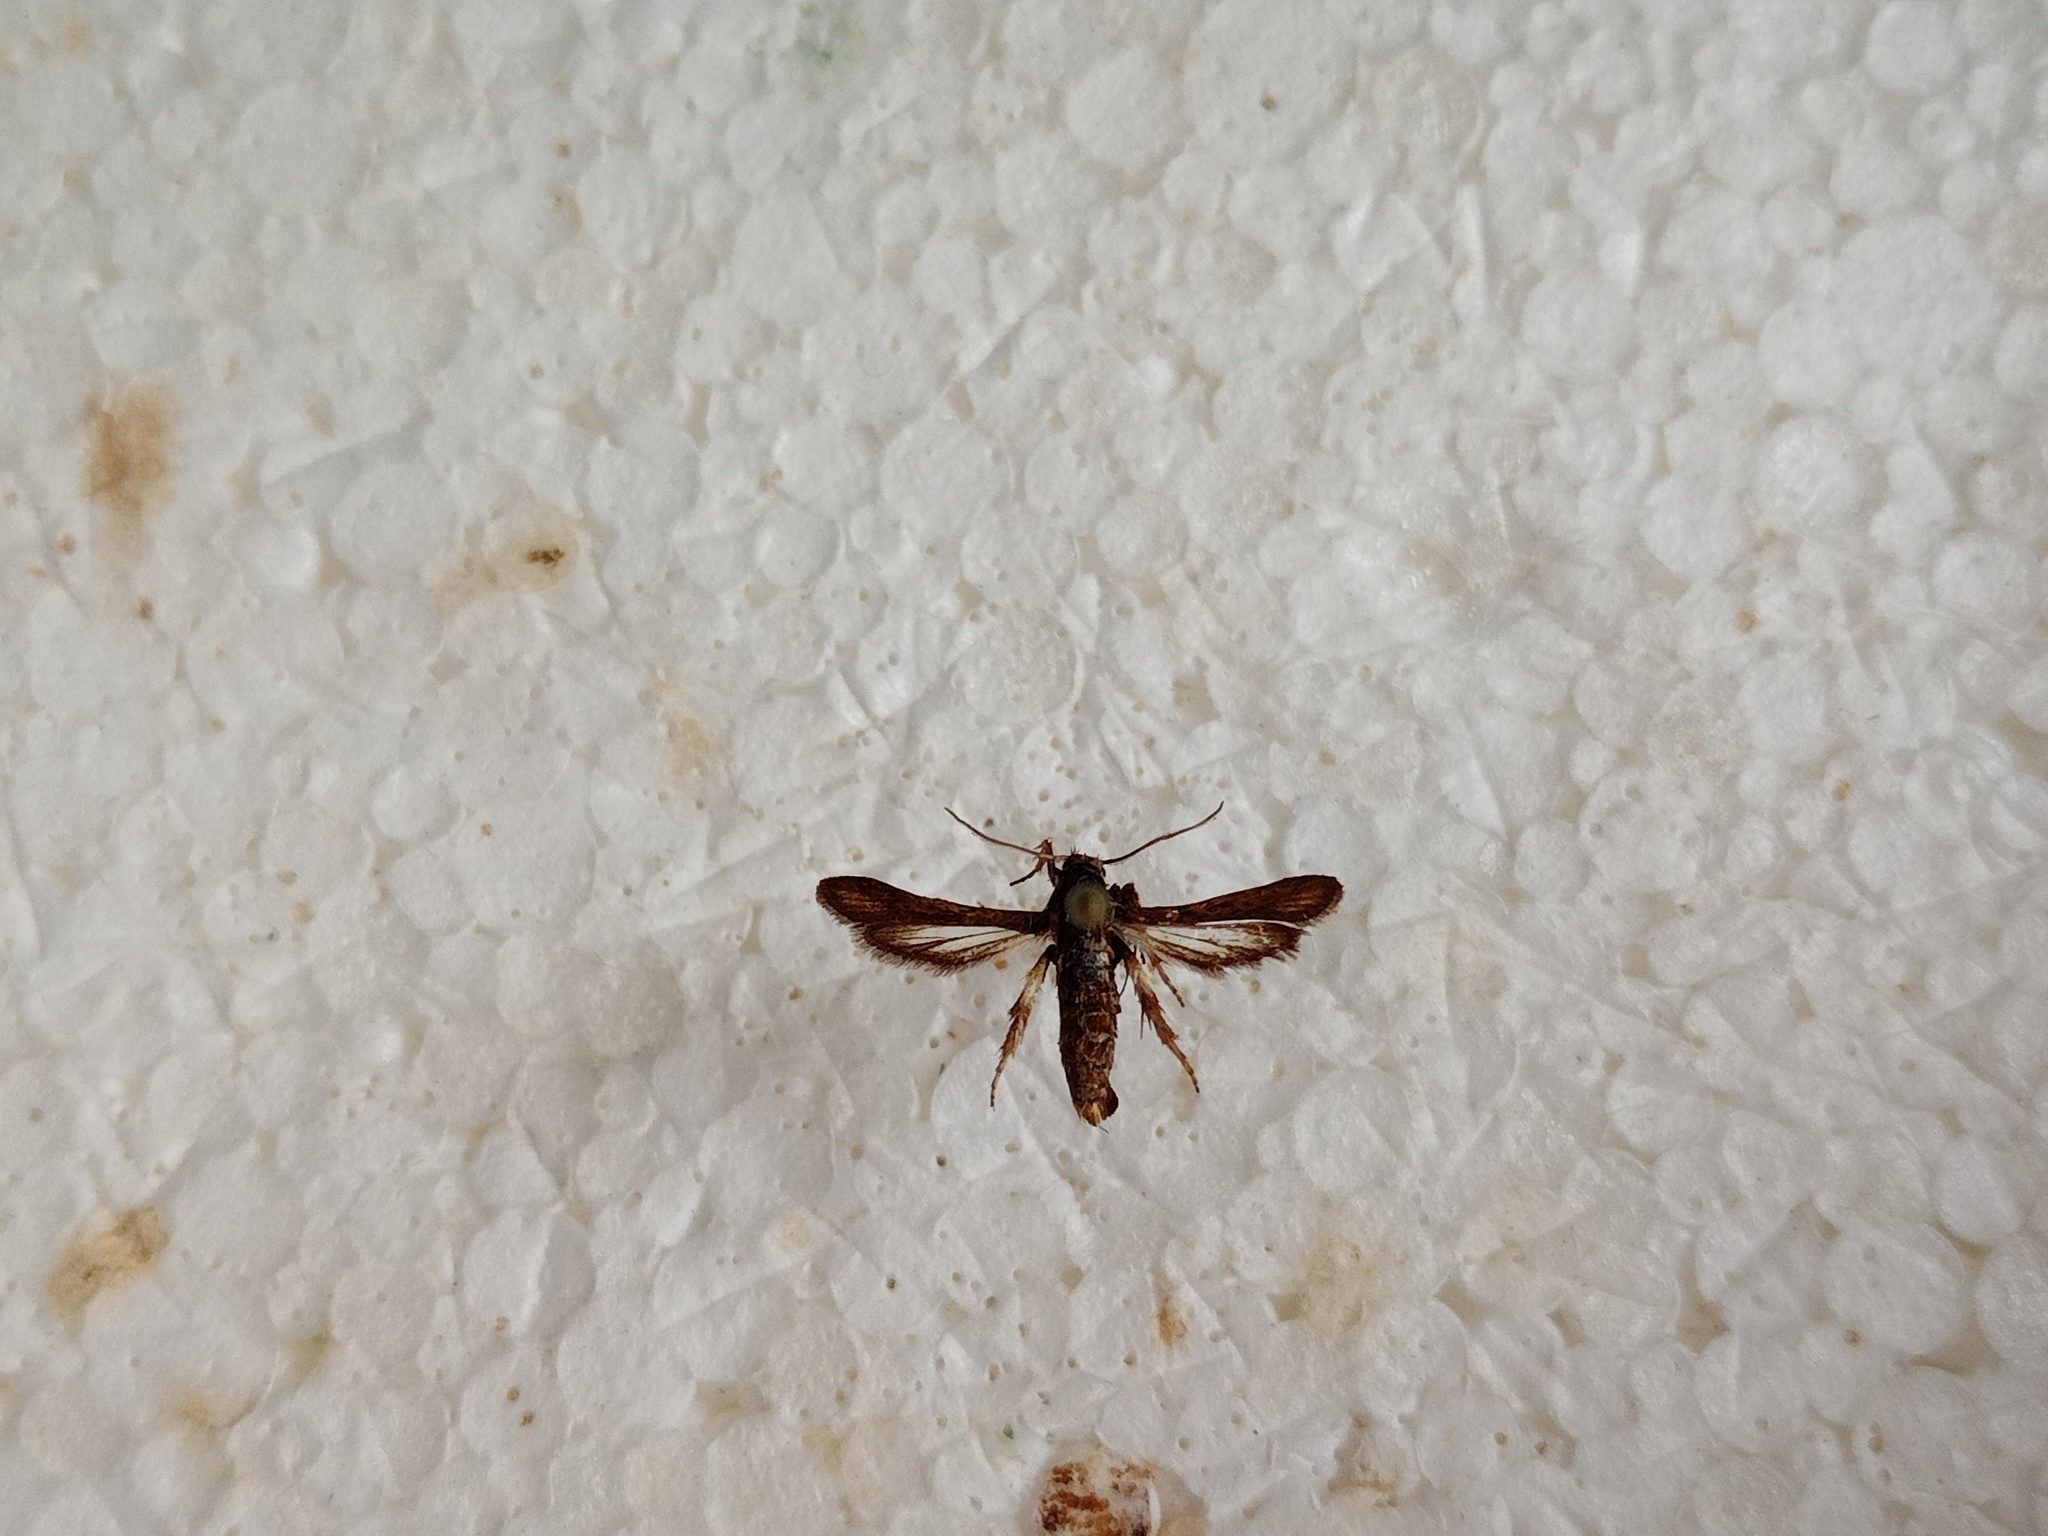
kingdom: Animalia
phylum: Arthropoda
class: Insecta
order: Lepidoptera
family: Sesiidae
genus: Microsphecia
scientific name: Microsphecia brosiformis
